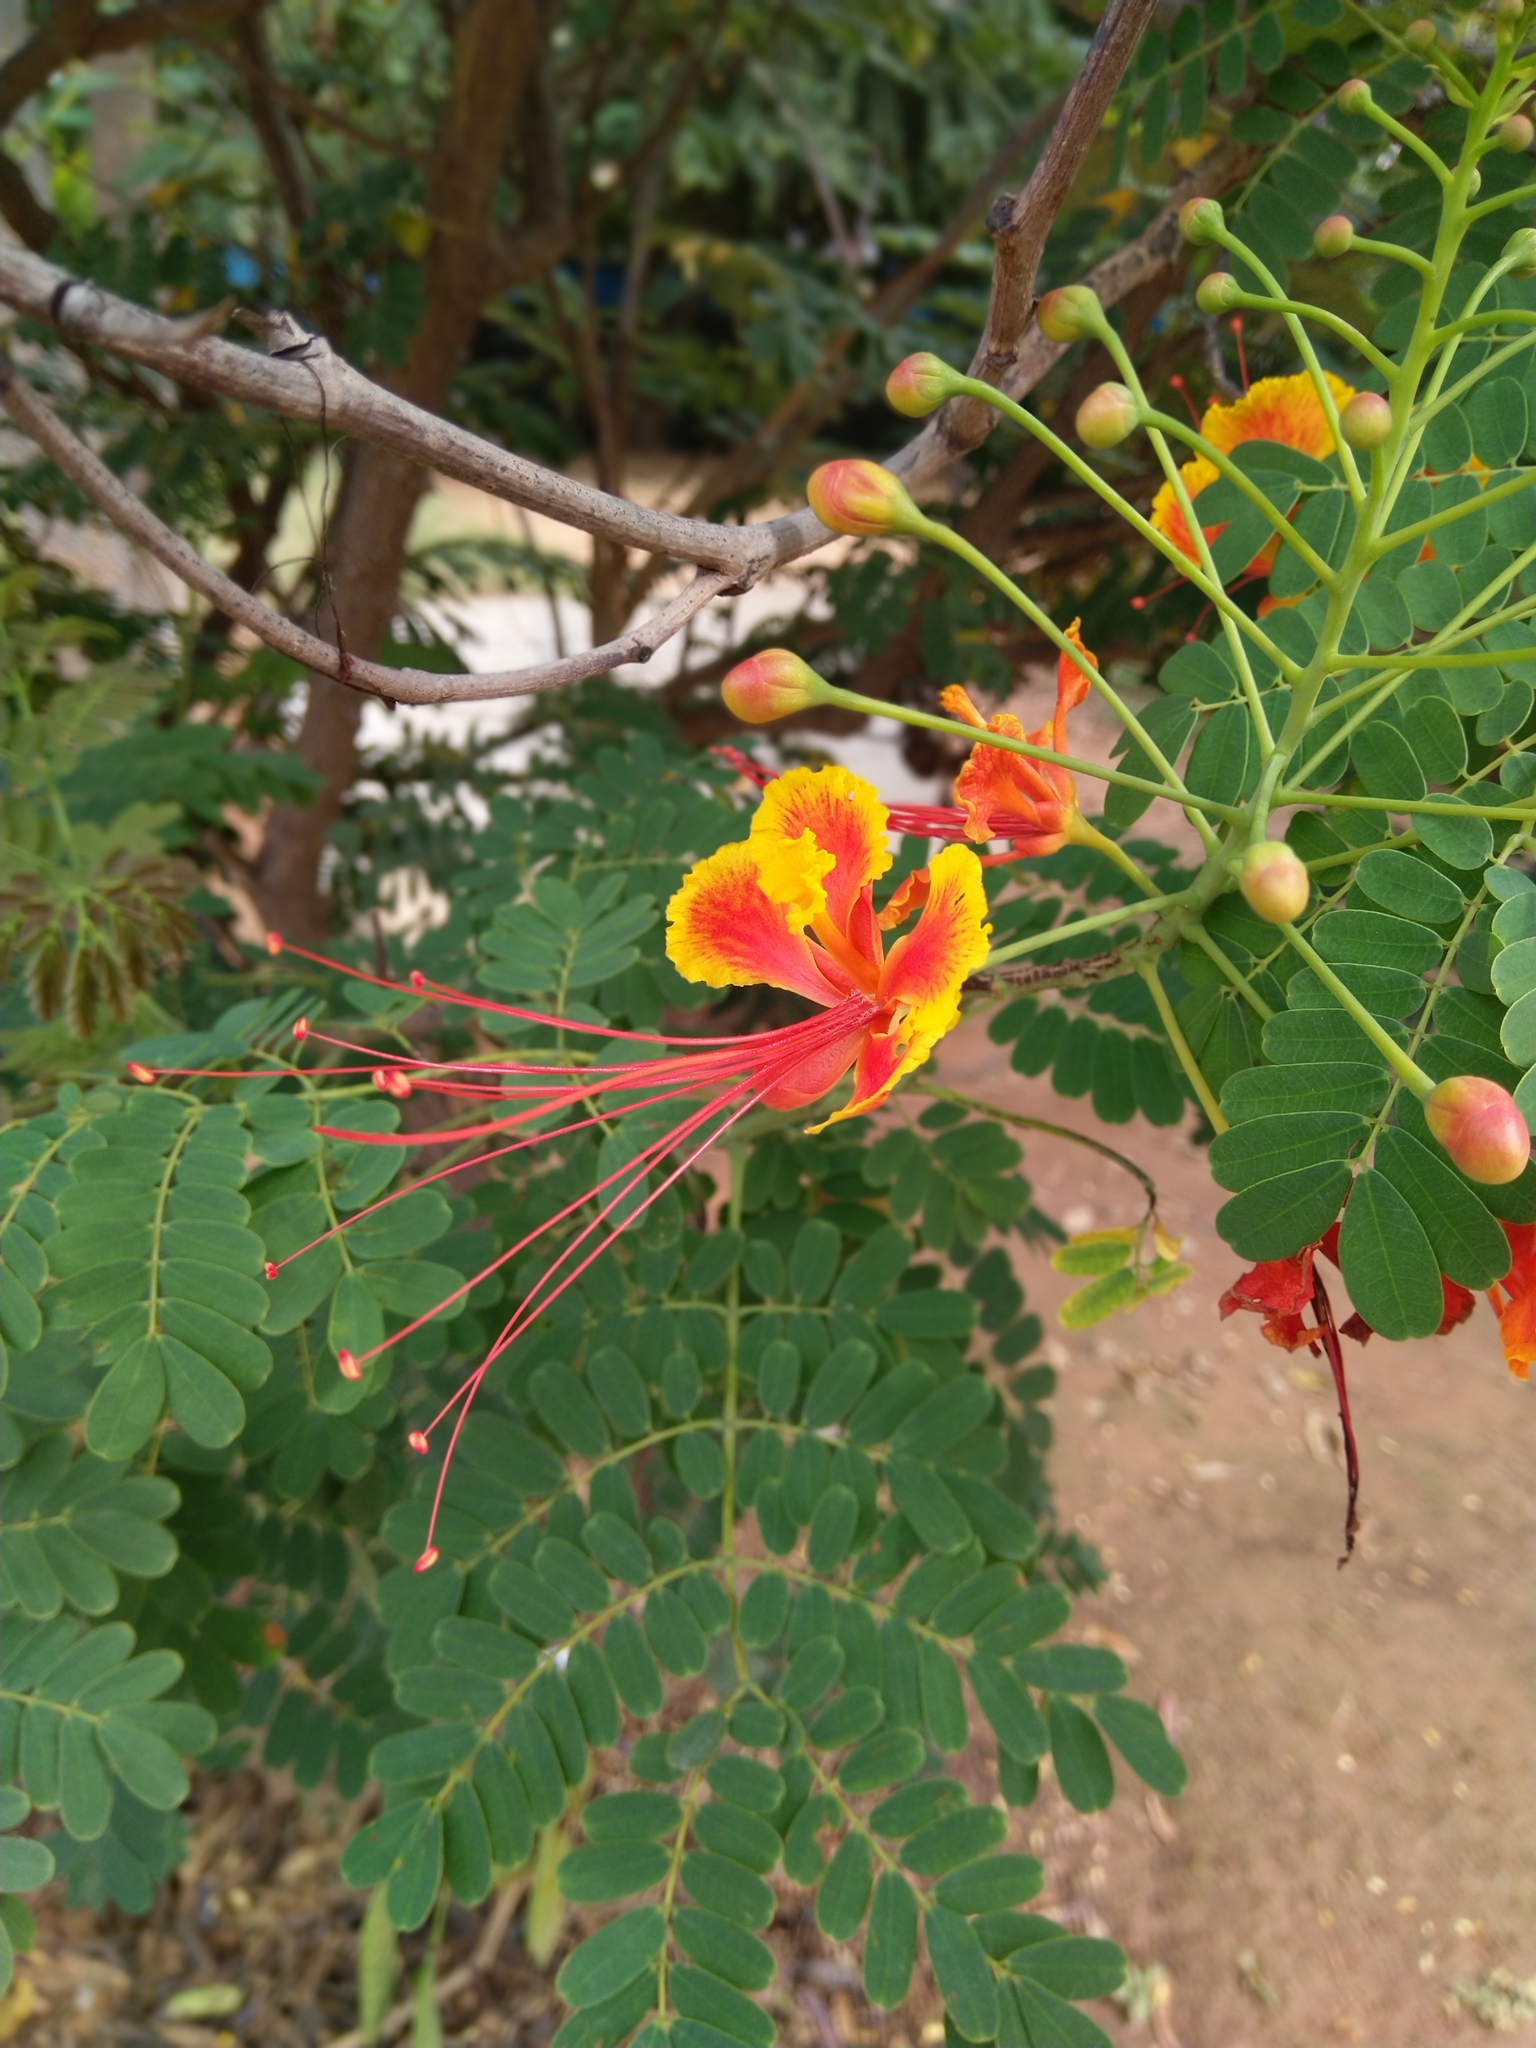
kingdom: Plantae
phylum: Tracheophyta
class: Magnoliopsida
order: Fabales
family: Fabaceae
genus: Caesalpinia
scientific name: Caesalpinia pulcherrima
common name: Pride-of-barbados
